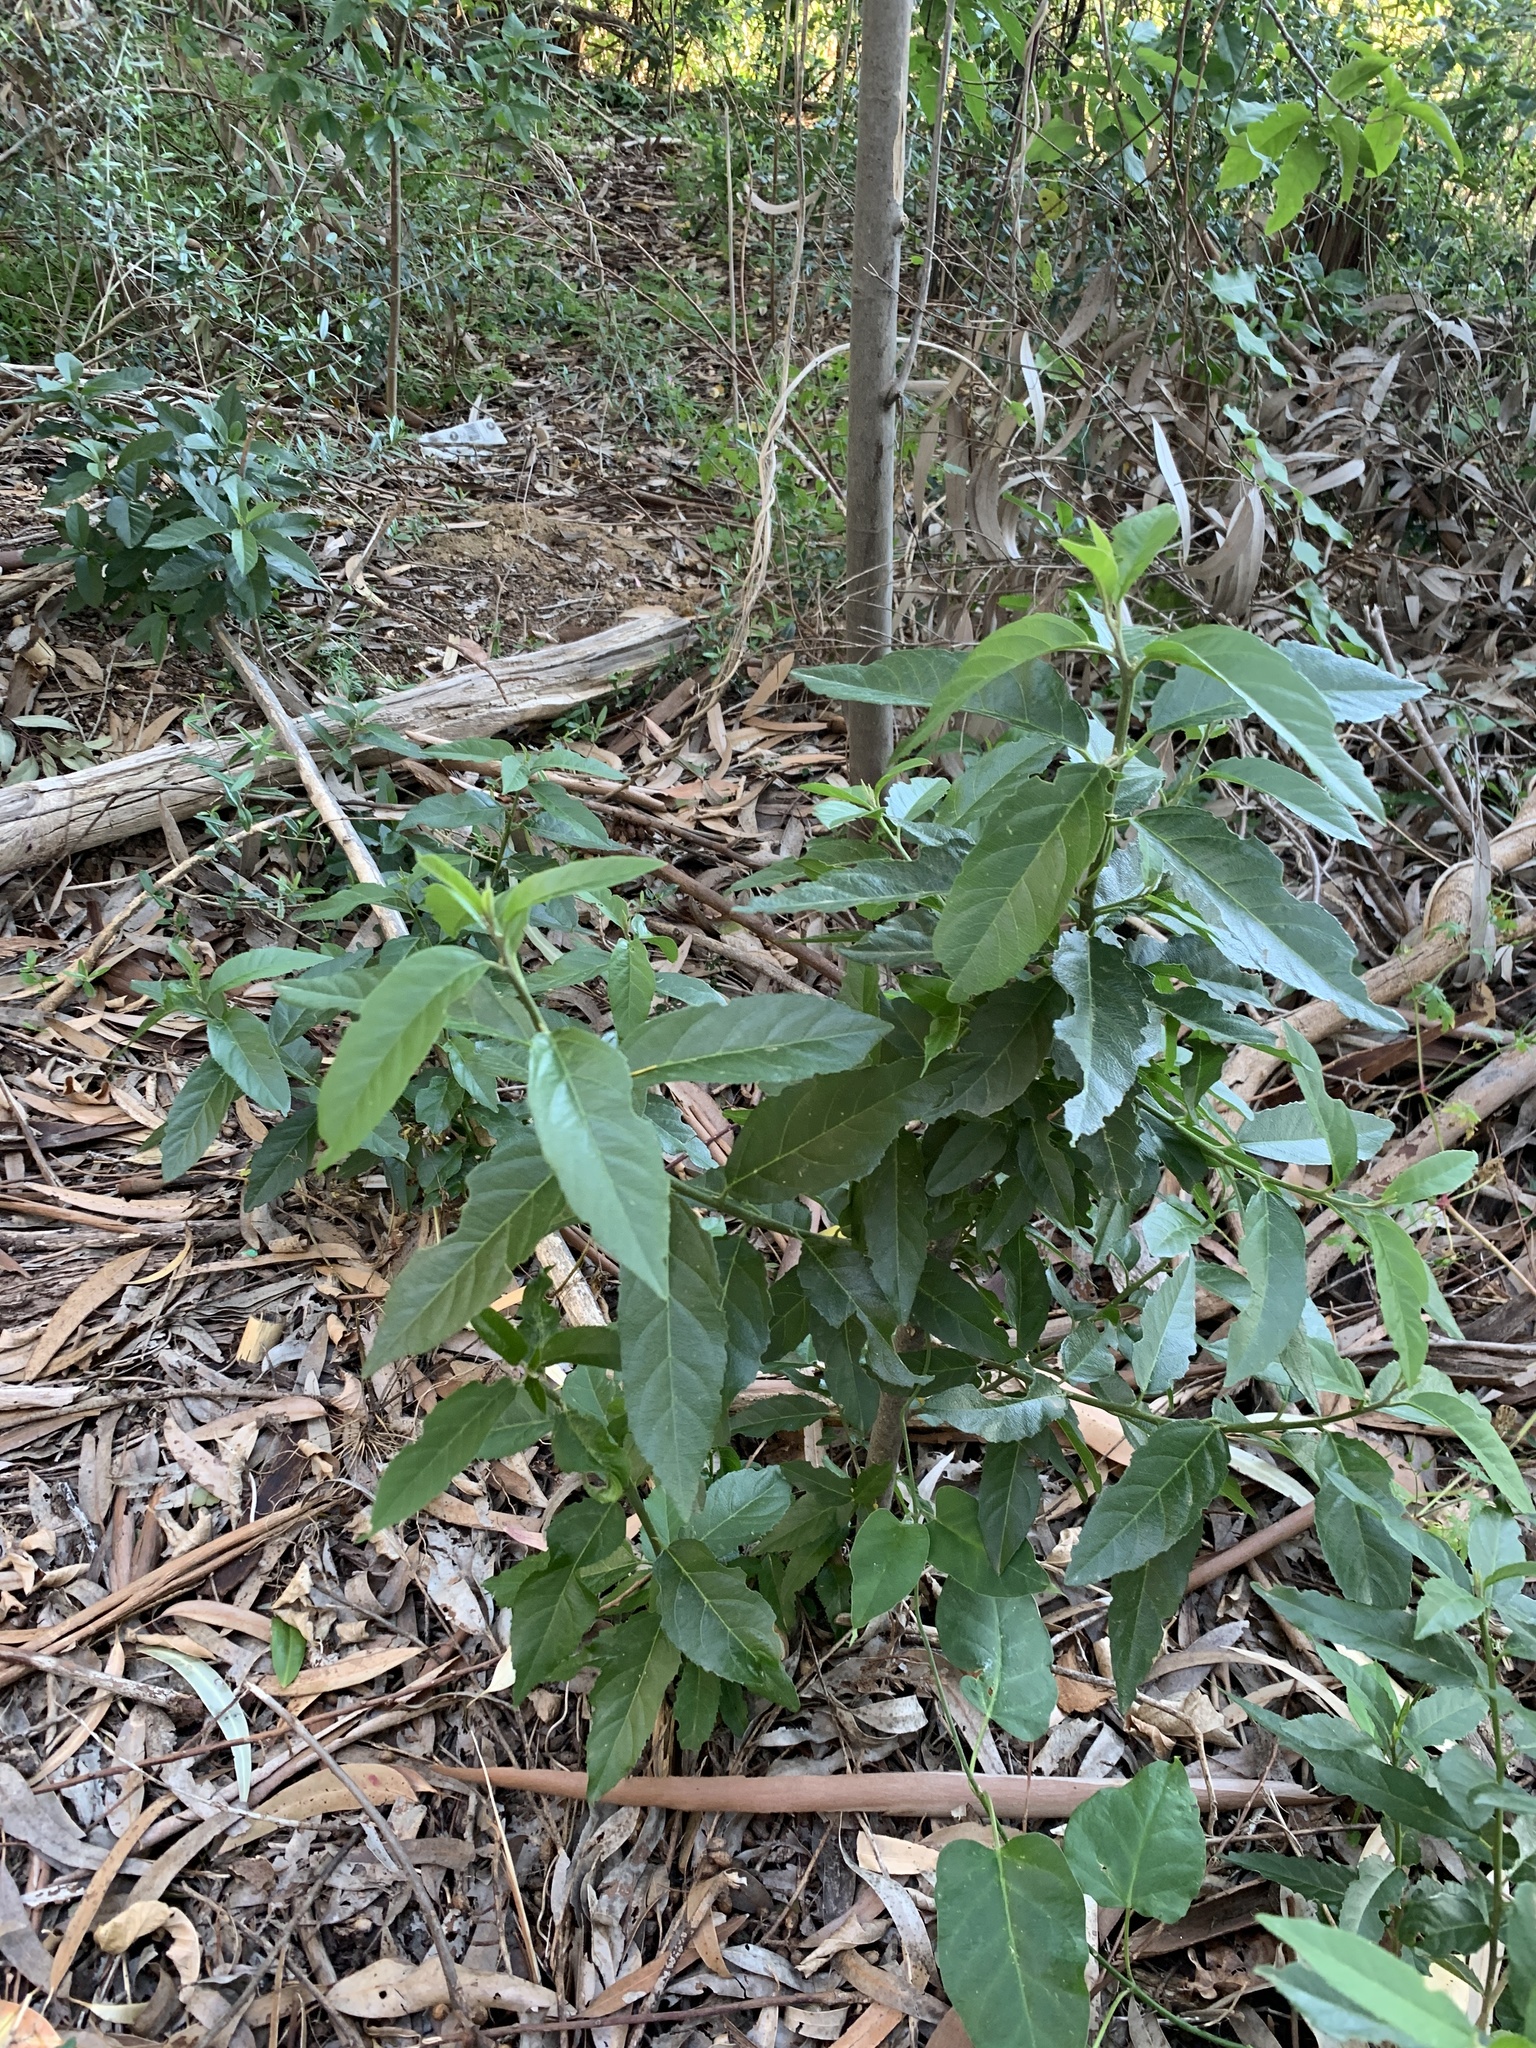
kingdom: Plantae
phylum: Tracheophyta
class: Magnoliopsida
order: Malpighiales
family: Achariaceae
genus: Kiggelaria
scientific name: Kiggelaria africana
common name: Wild peach
